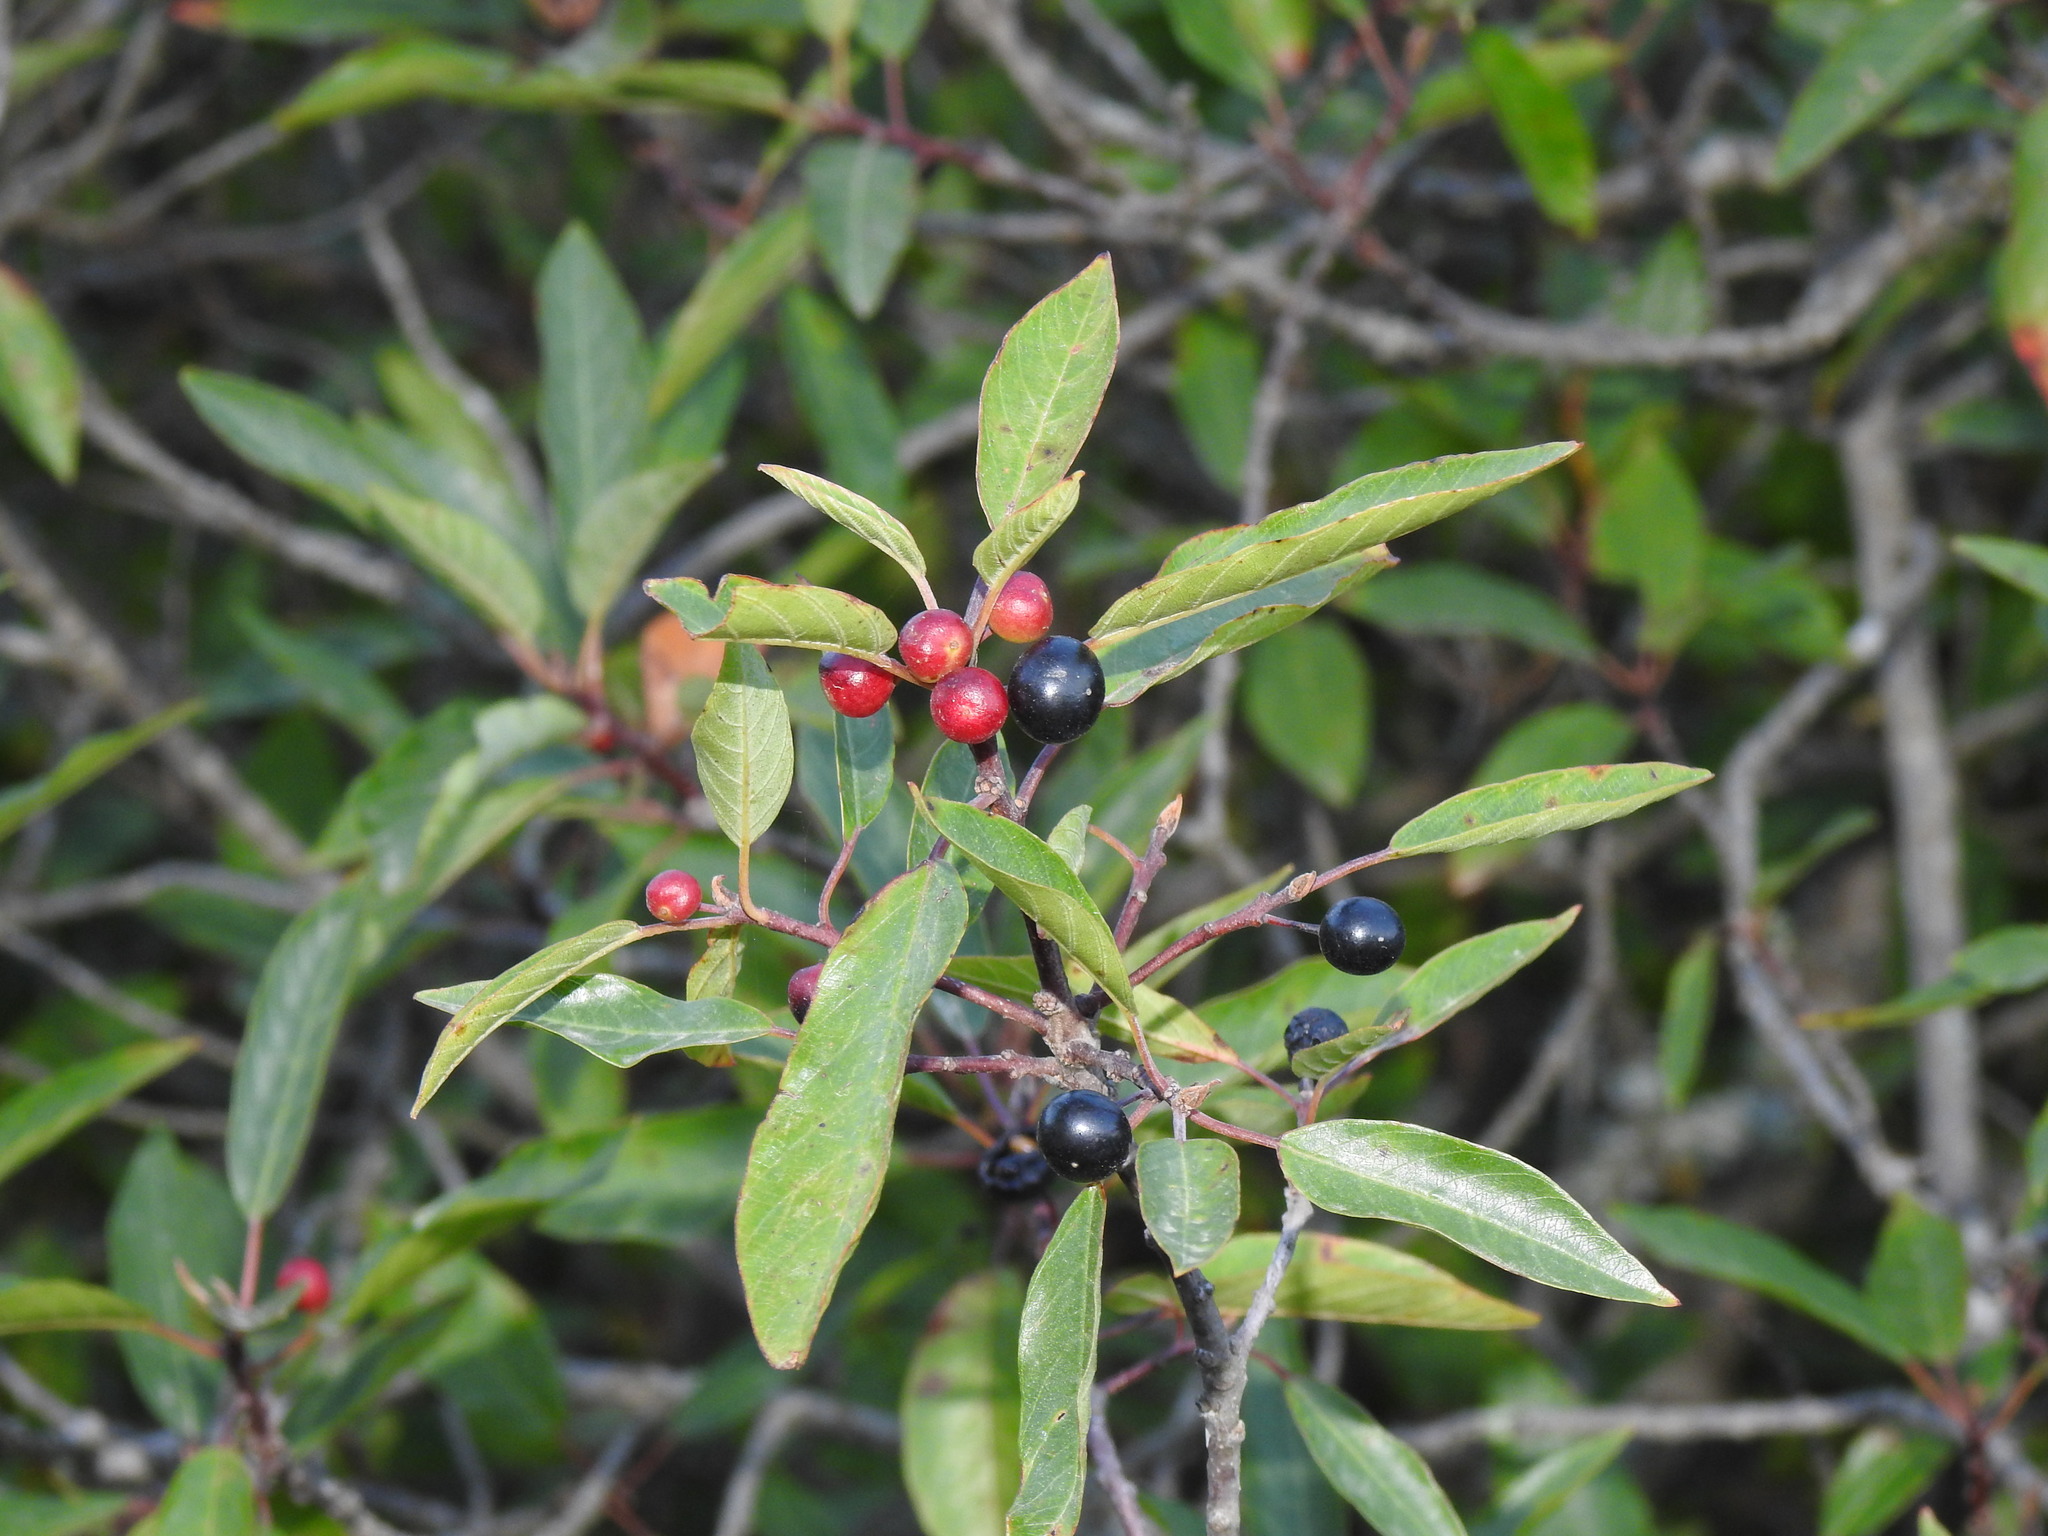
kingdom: Plantae
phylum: Tracheophyta
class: Magnoliopsida
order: Rosales
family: Rhamnaceae
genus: Frangula
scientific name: Frangula alnus
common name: Alder buckthorn
